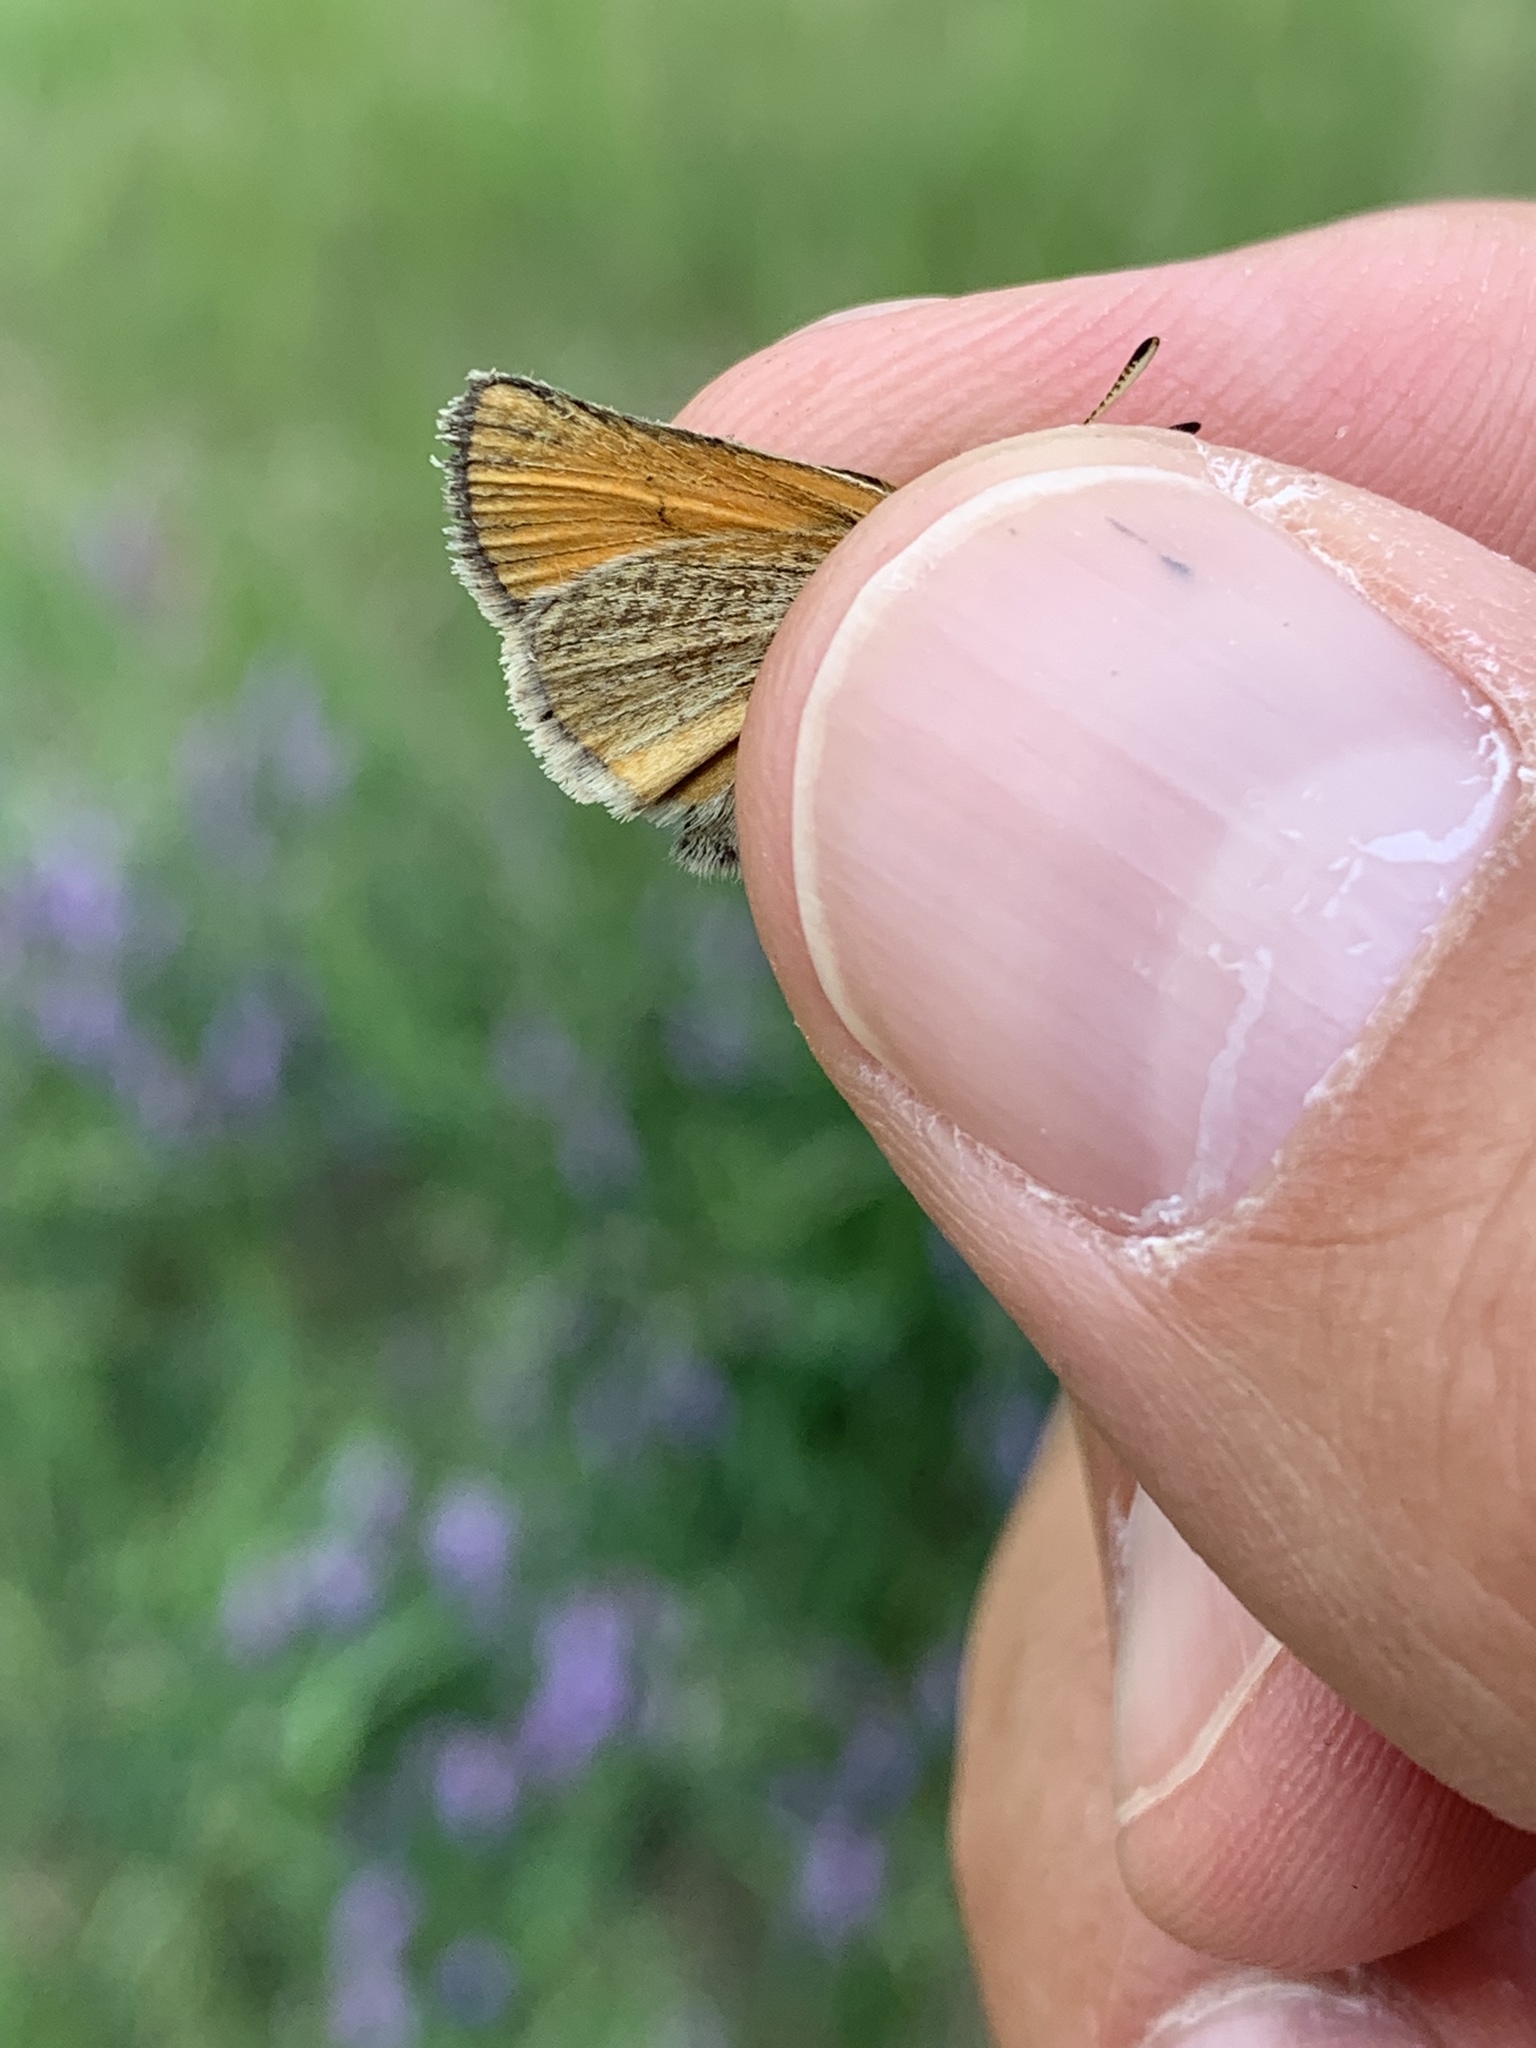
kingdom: Animalia
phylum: Arthropoda
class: Insecta
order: Lepidoptera
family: Hesperiidae
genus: Thymelicus
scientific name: Thymelicus lineola
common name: Essex skipper
